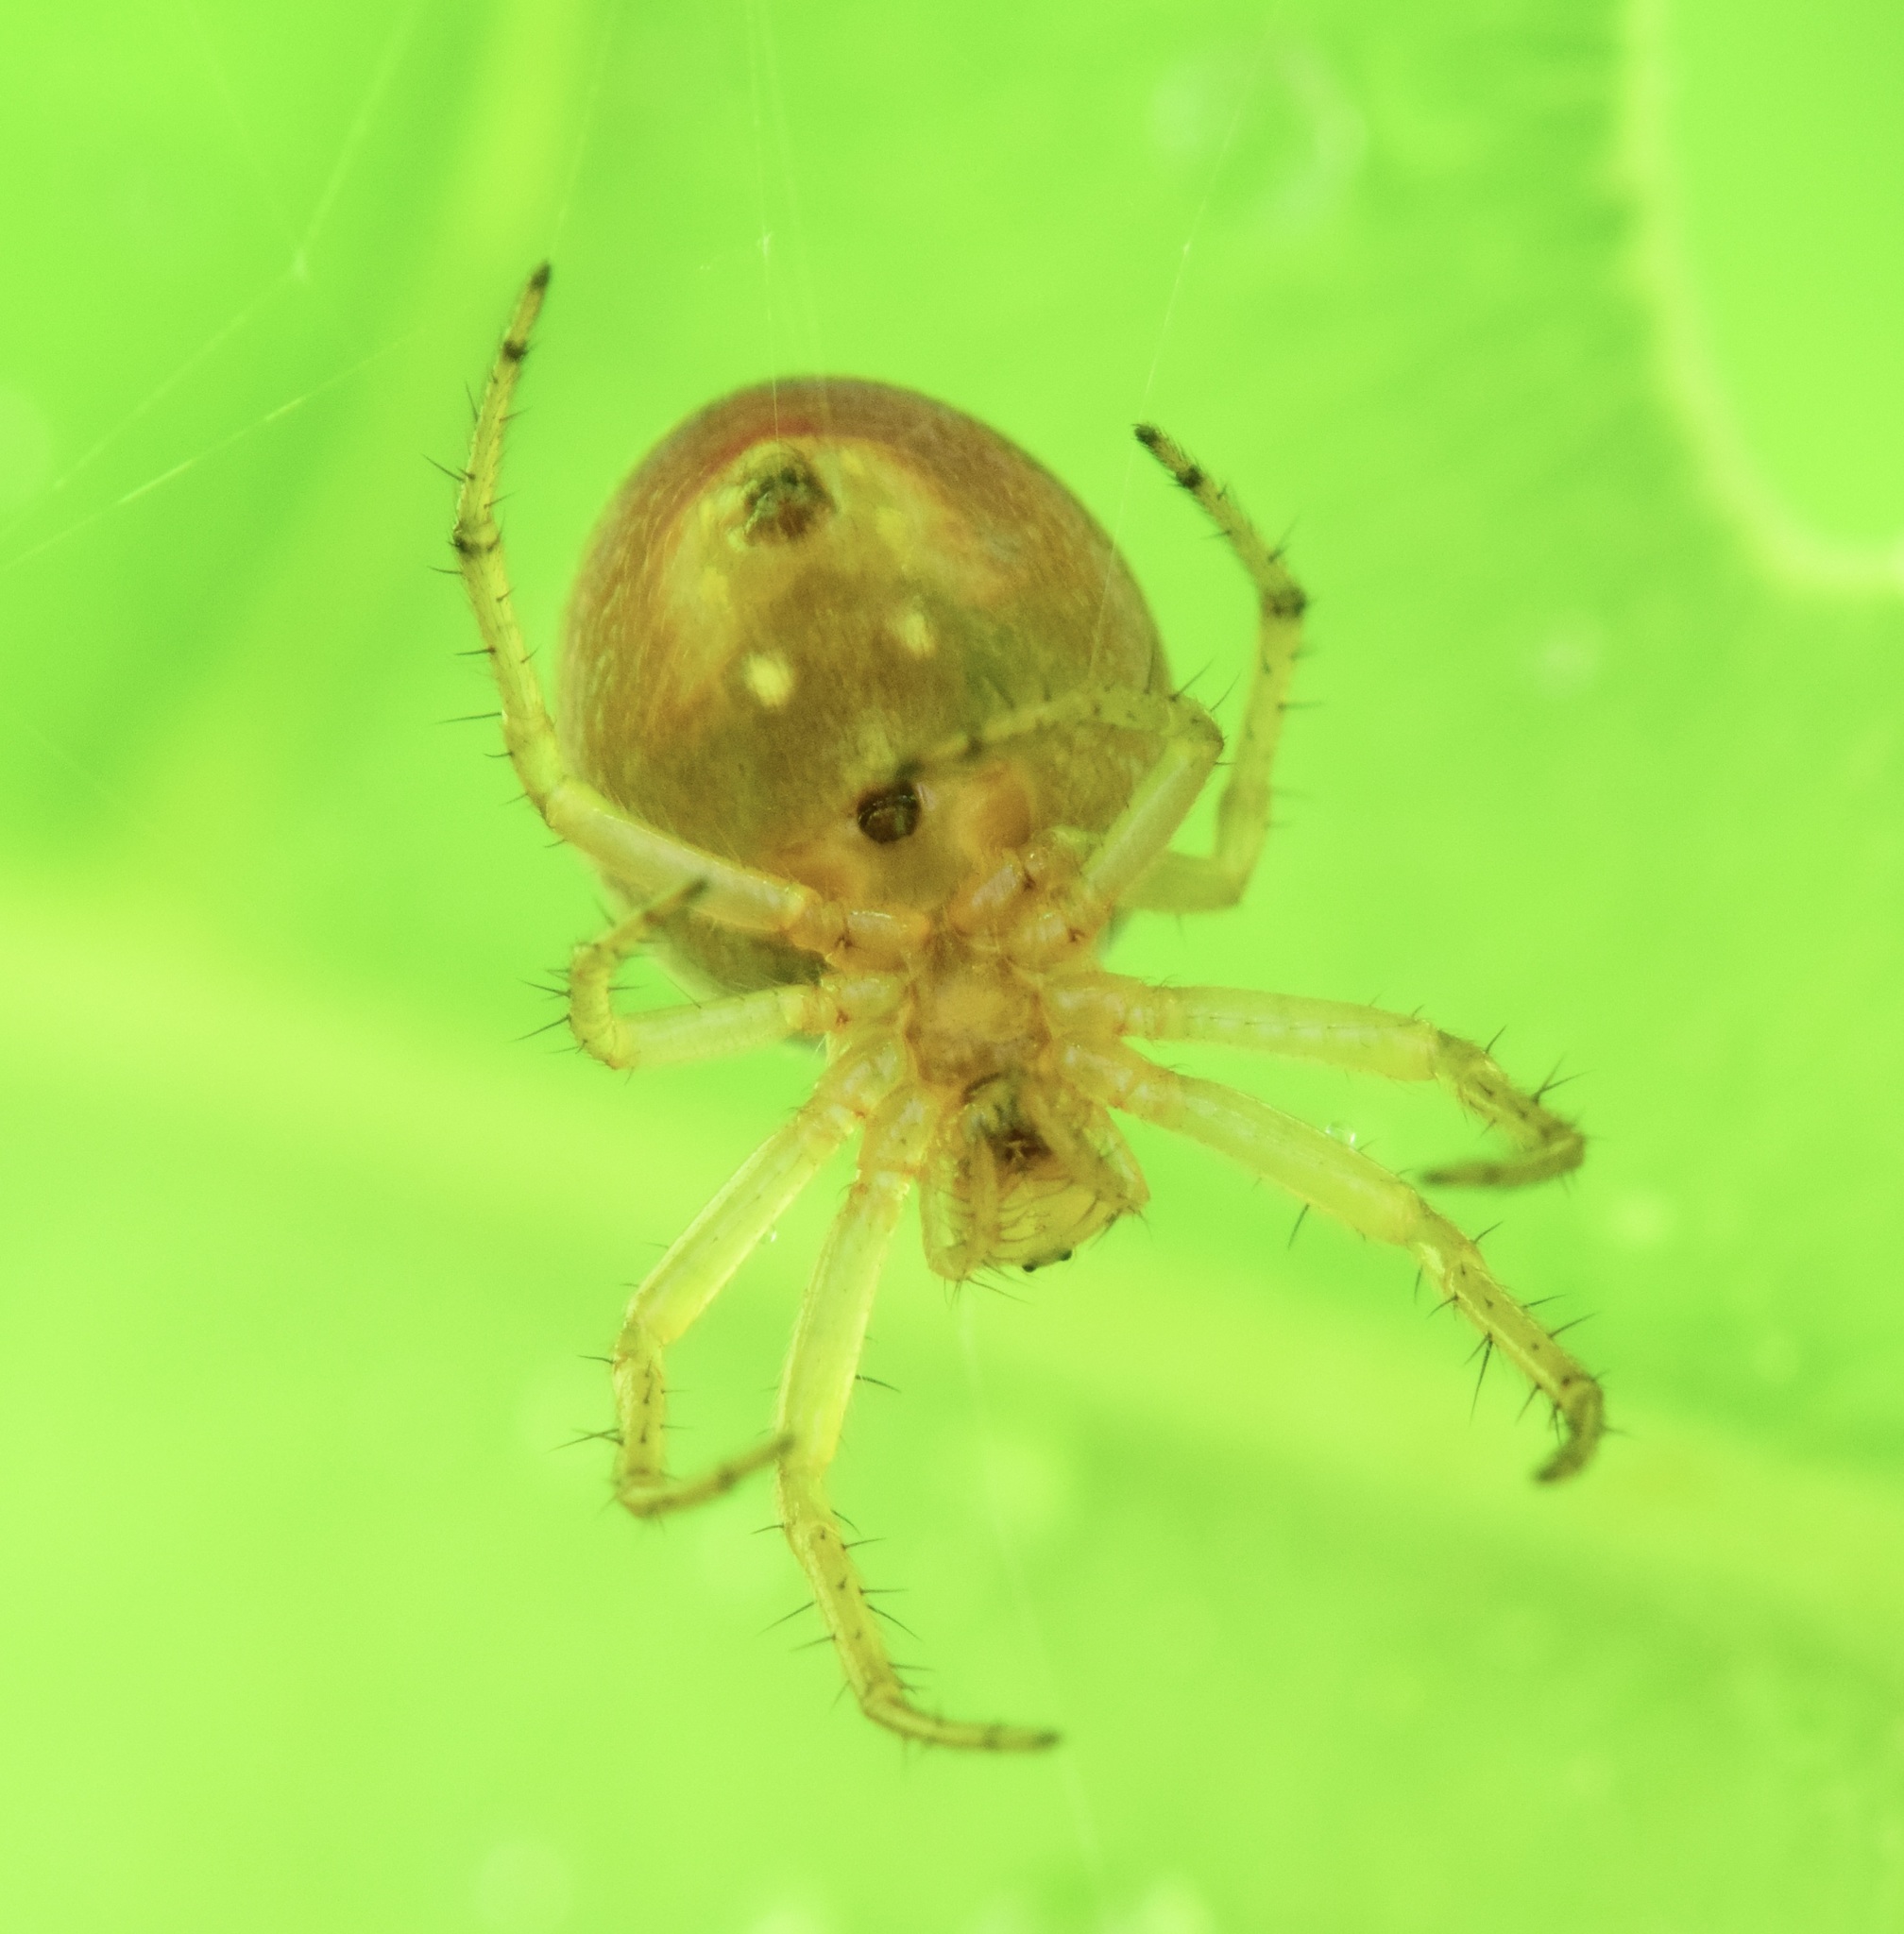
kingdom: Animalia
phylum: Arthropoda
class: Arachnida
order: Araneae
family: Araneidae
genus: Araniella
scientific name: Araniella displicata
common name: Sixspotted orb weaver
